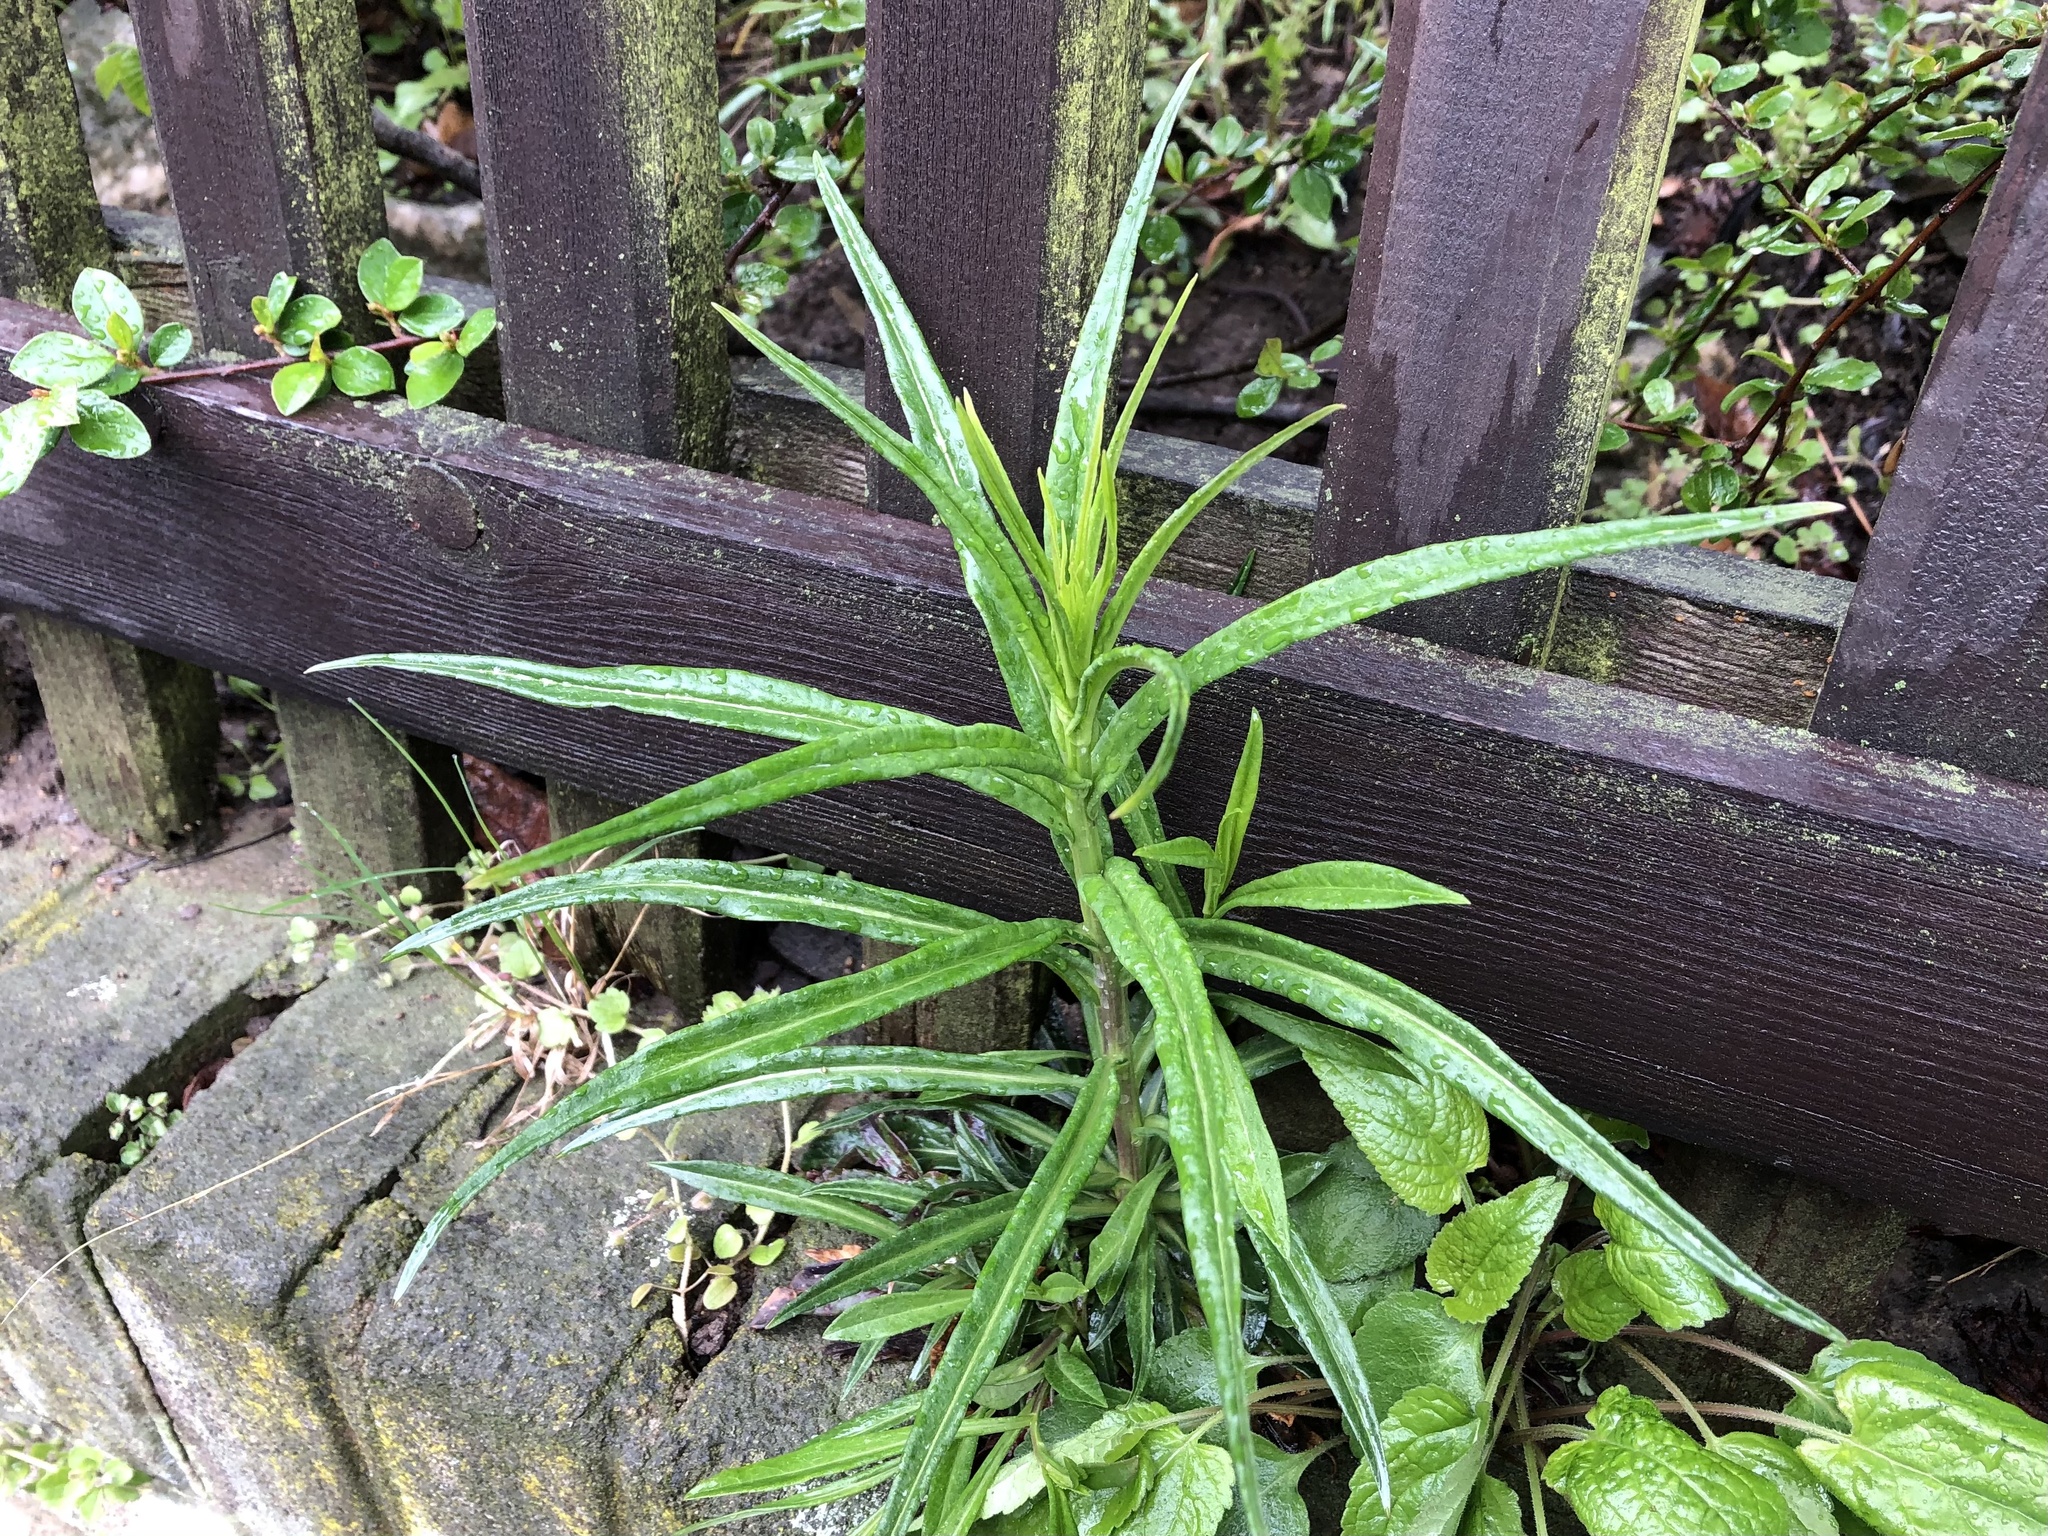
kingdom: Plantae
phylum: Tracheophyta
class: Magnoliopsida
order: Asterales
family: Campanulaceae
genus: Campanula
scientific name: Campanula persicifolia
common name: Peach-leaved bellflower
